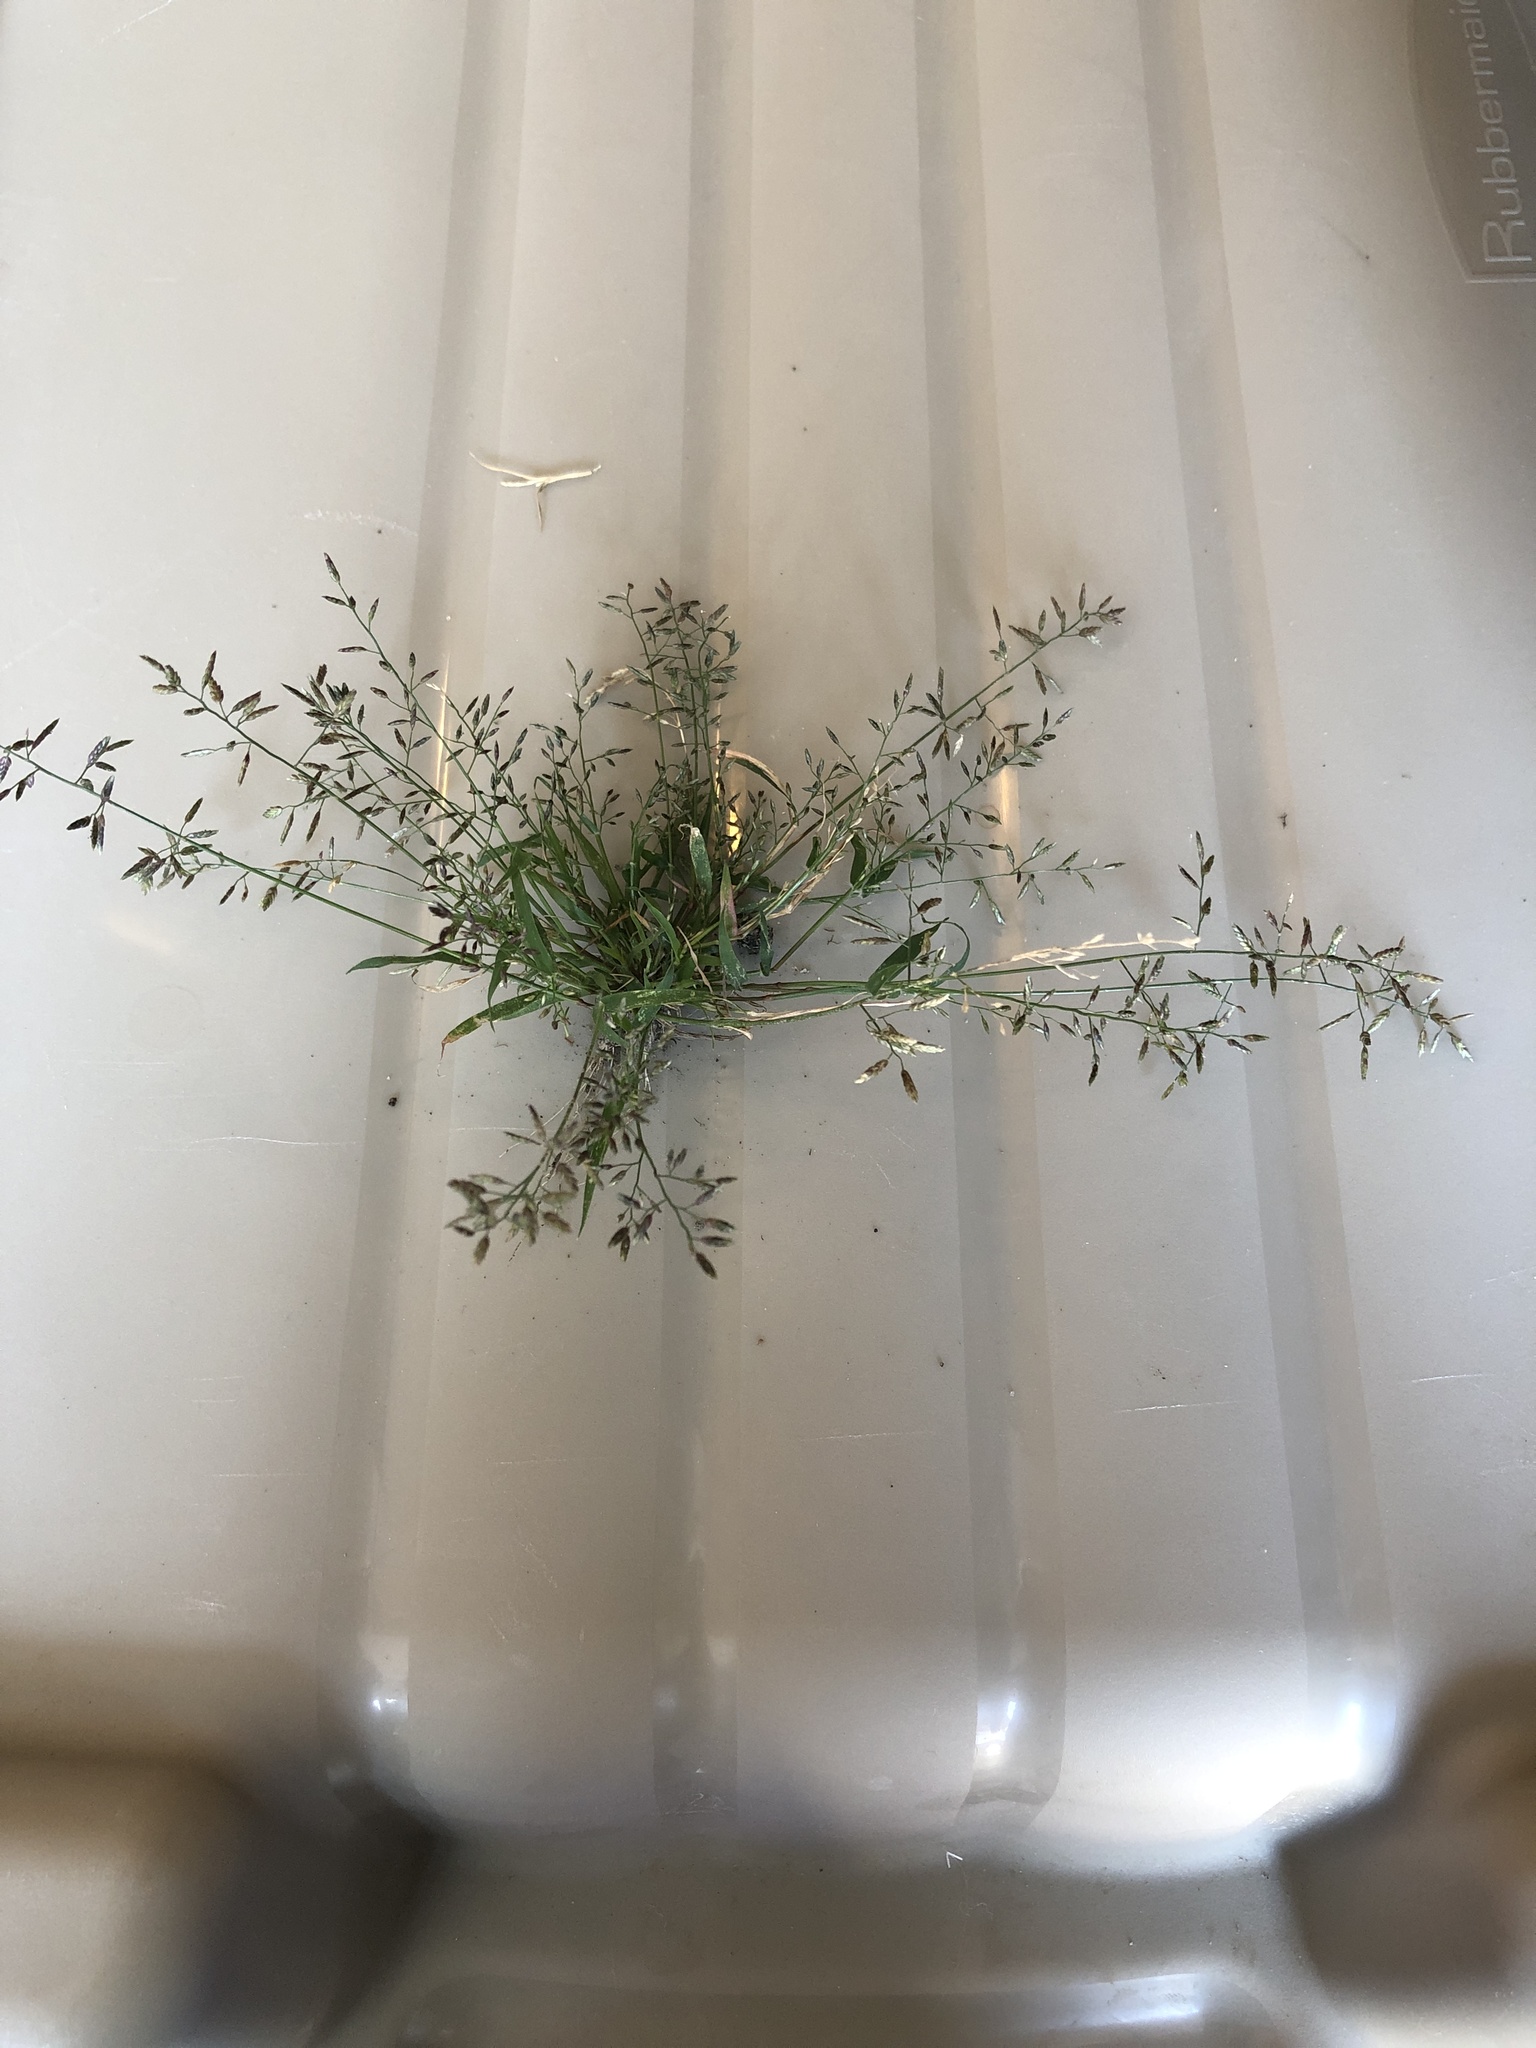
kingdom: Plantae
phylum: Tracheophyta
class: Liliopsida
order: Poales
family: Poaceae
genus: Eragrostis
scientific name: Eragrostis minor
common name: Small love-grass
